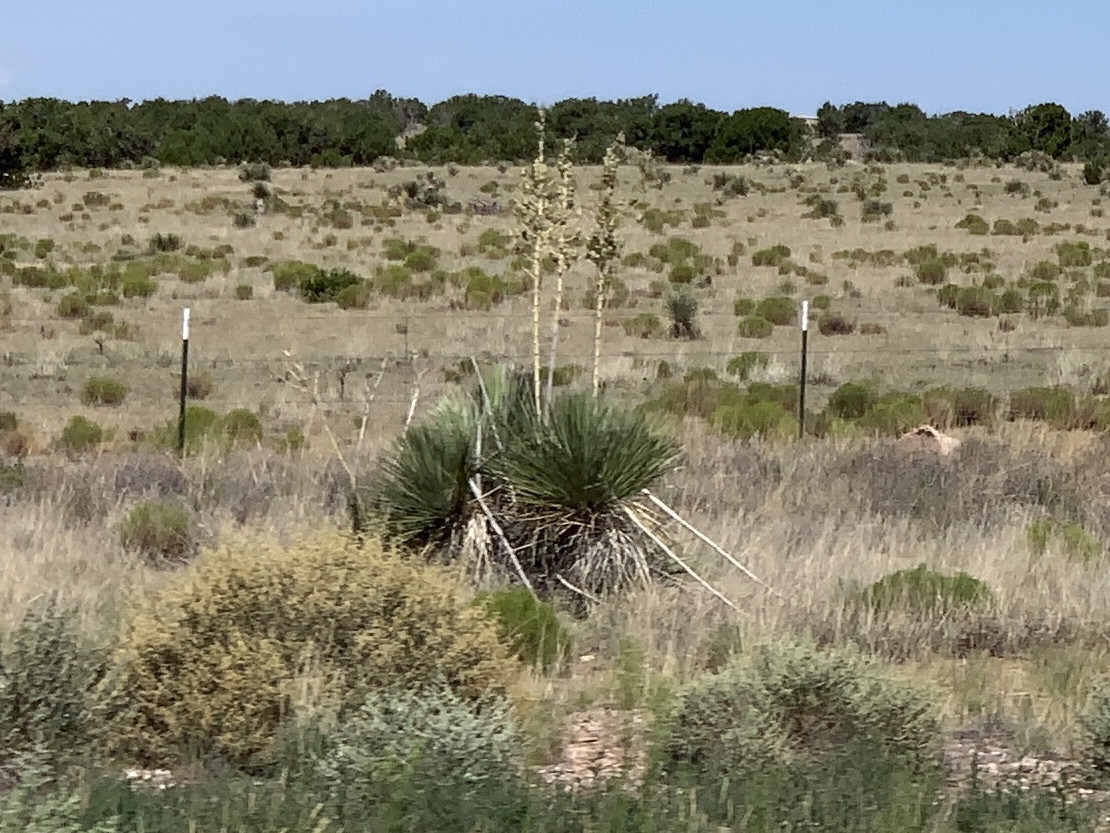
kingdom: Plantae
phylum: Tracheophyta
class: Liliopsida
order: Asparagales
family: Asparagaceae
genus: Yucca
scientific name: Yucca elata
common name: Palmella
